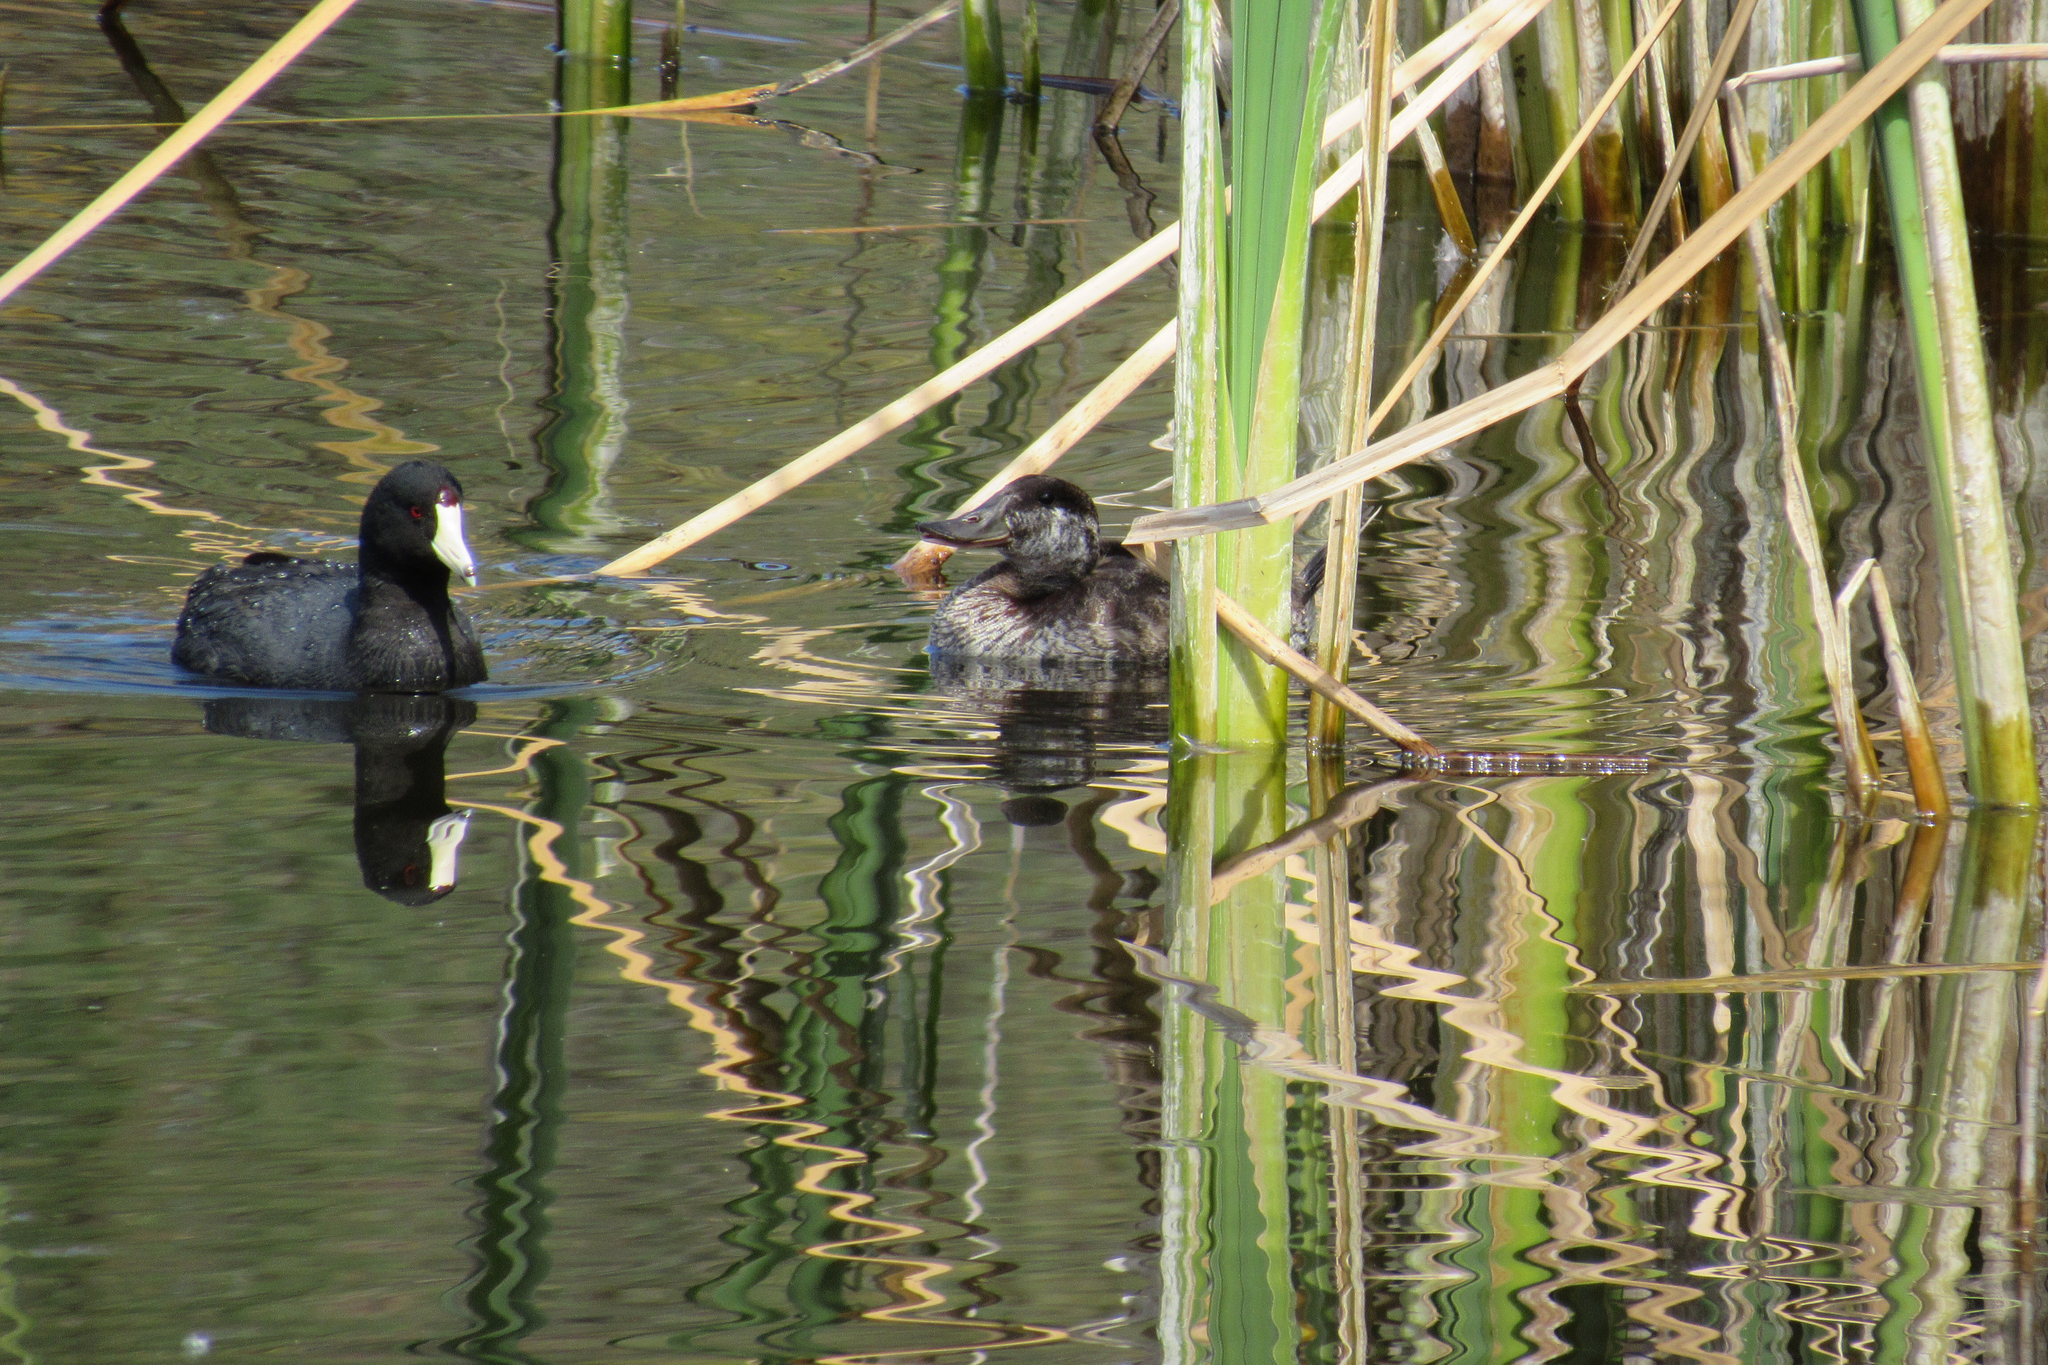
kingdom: Animalia
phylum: Chordata
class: Aves
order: Anseriformes
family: Anatidae
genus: Oxyura
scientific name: Oxyura jamaicensis
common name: Ruddy duck
